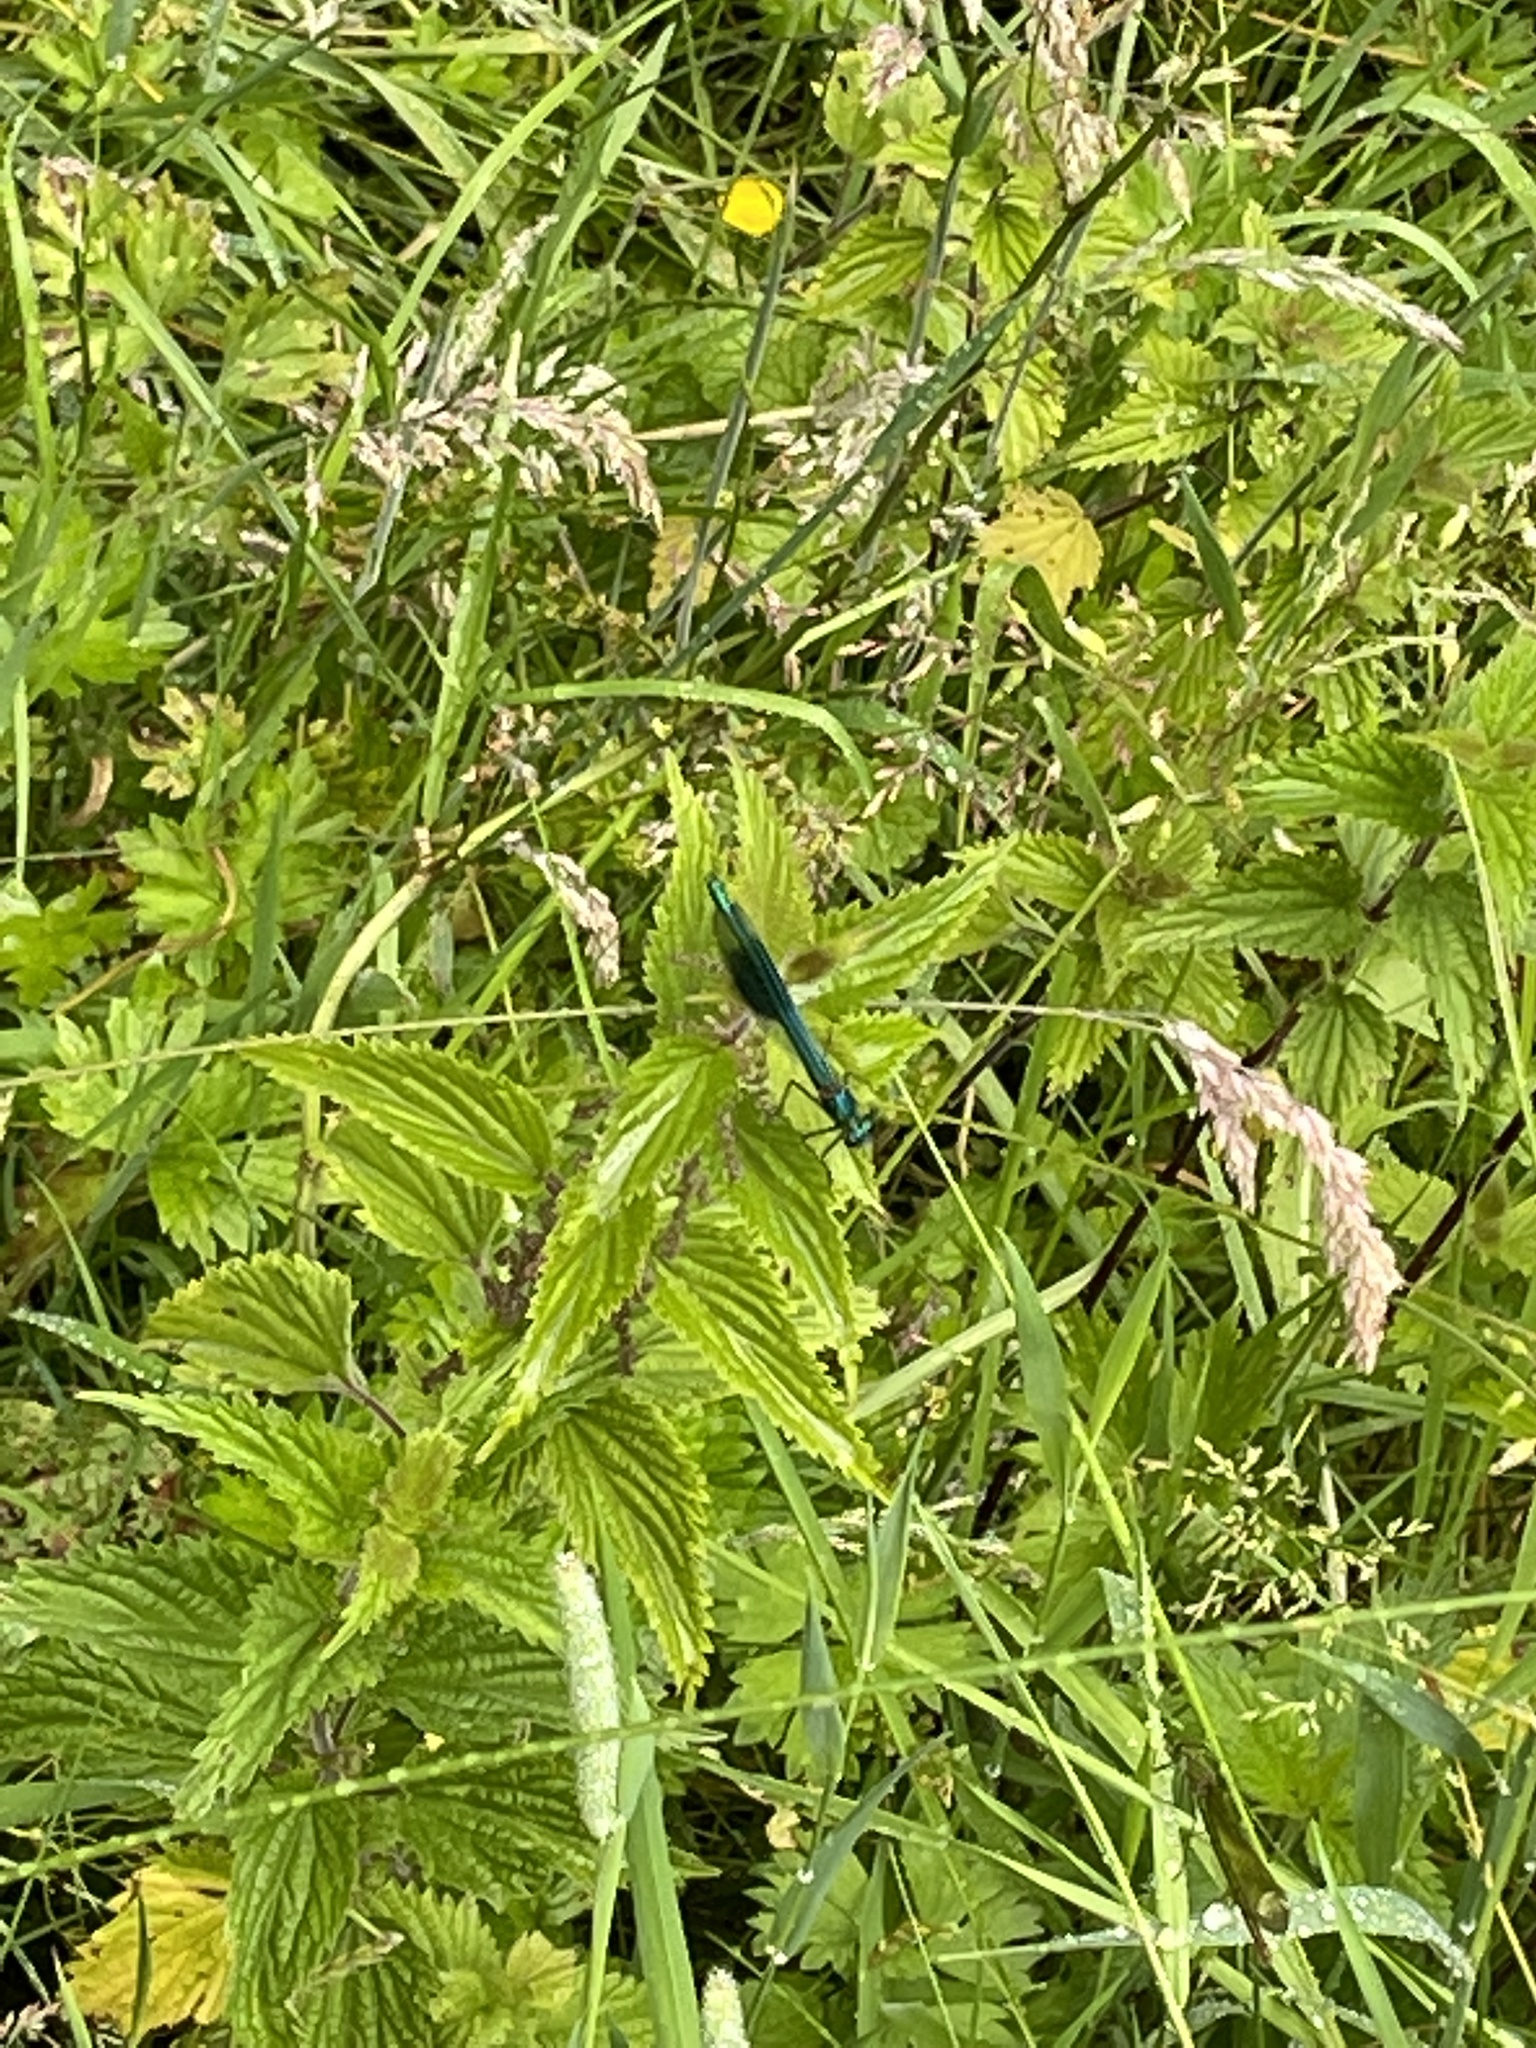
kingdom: Animalia
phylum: Arthropoda
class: Insecta
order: Odonata
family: Calopterygidae
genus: Calopteryx
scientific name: Calopteryx splendens
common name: Banded demoiselle
